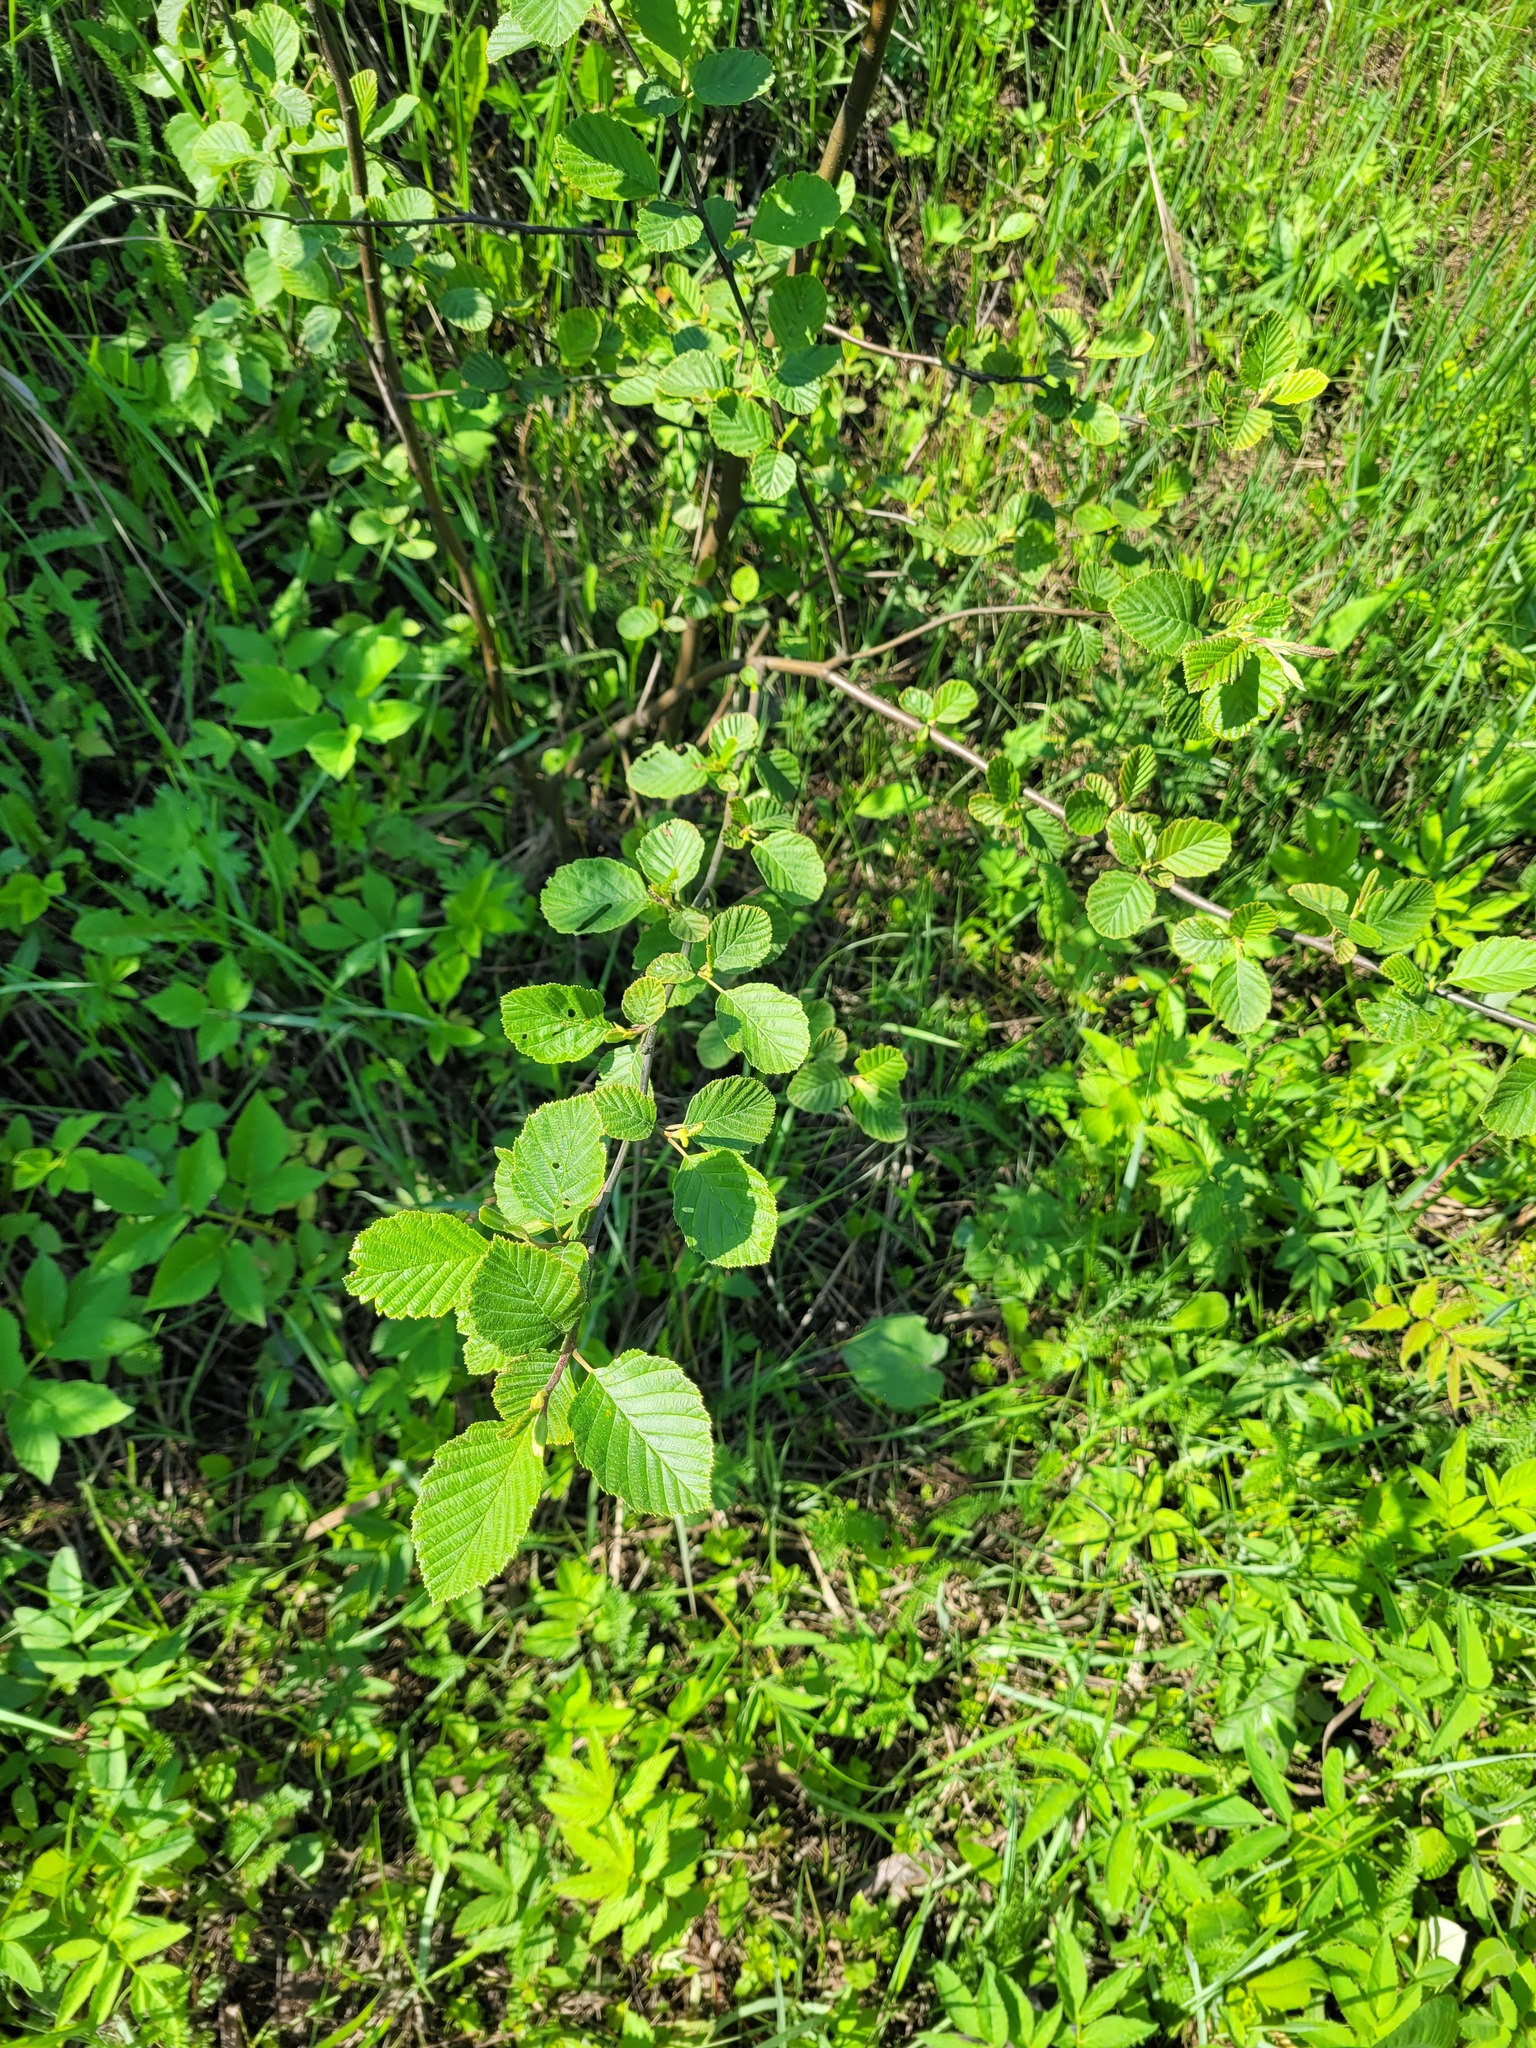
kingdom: Plantae
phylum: Tracheophyta
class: Magnoliopsida
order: Fagales
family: Betulaceae
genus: Alnus
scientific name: Alnus incana
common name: Grey alder
